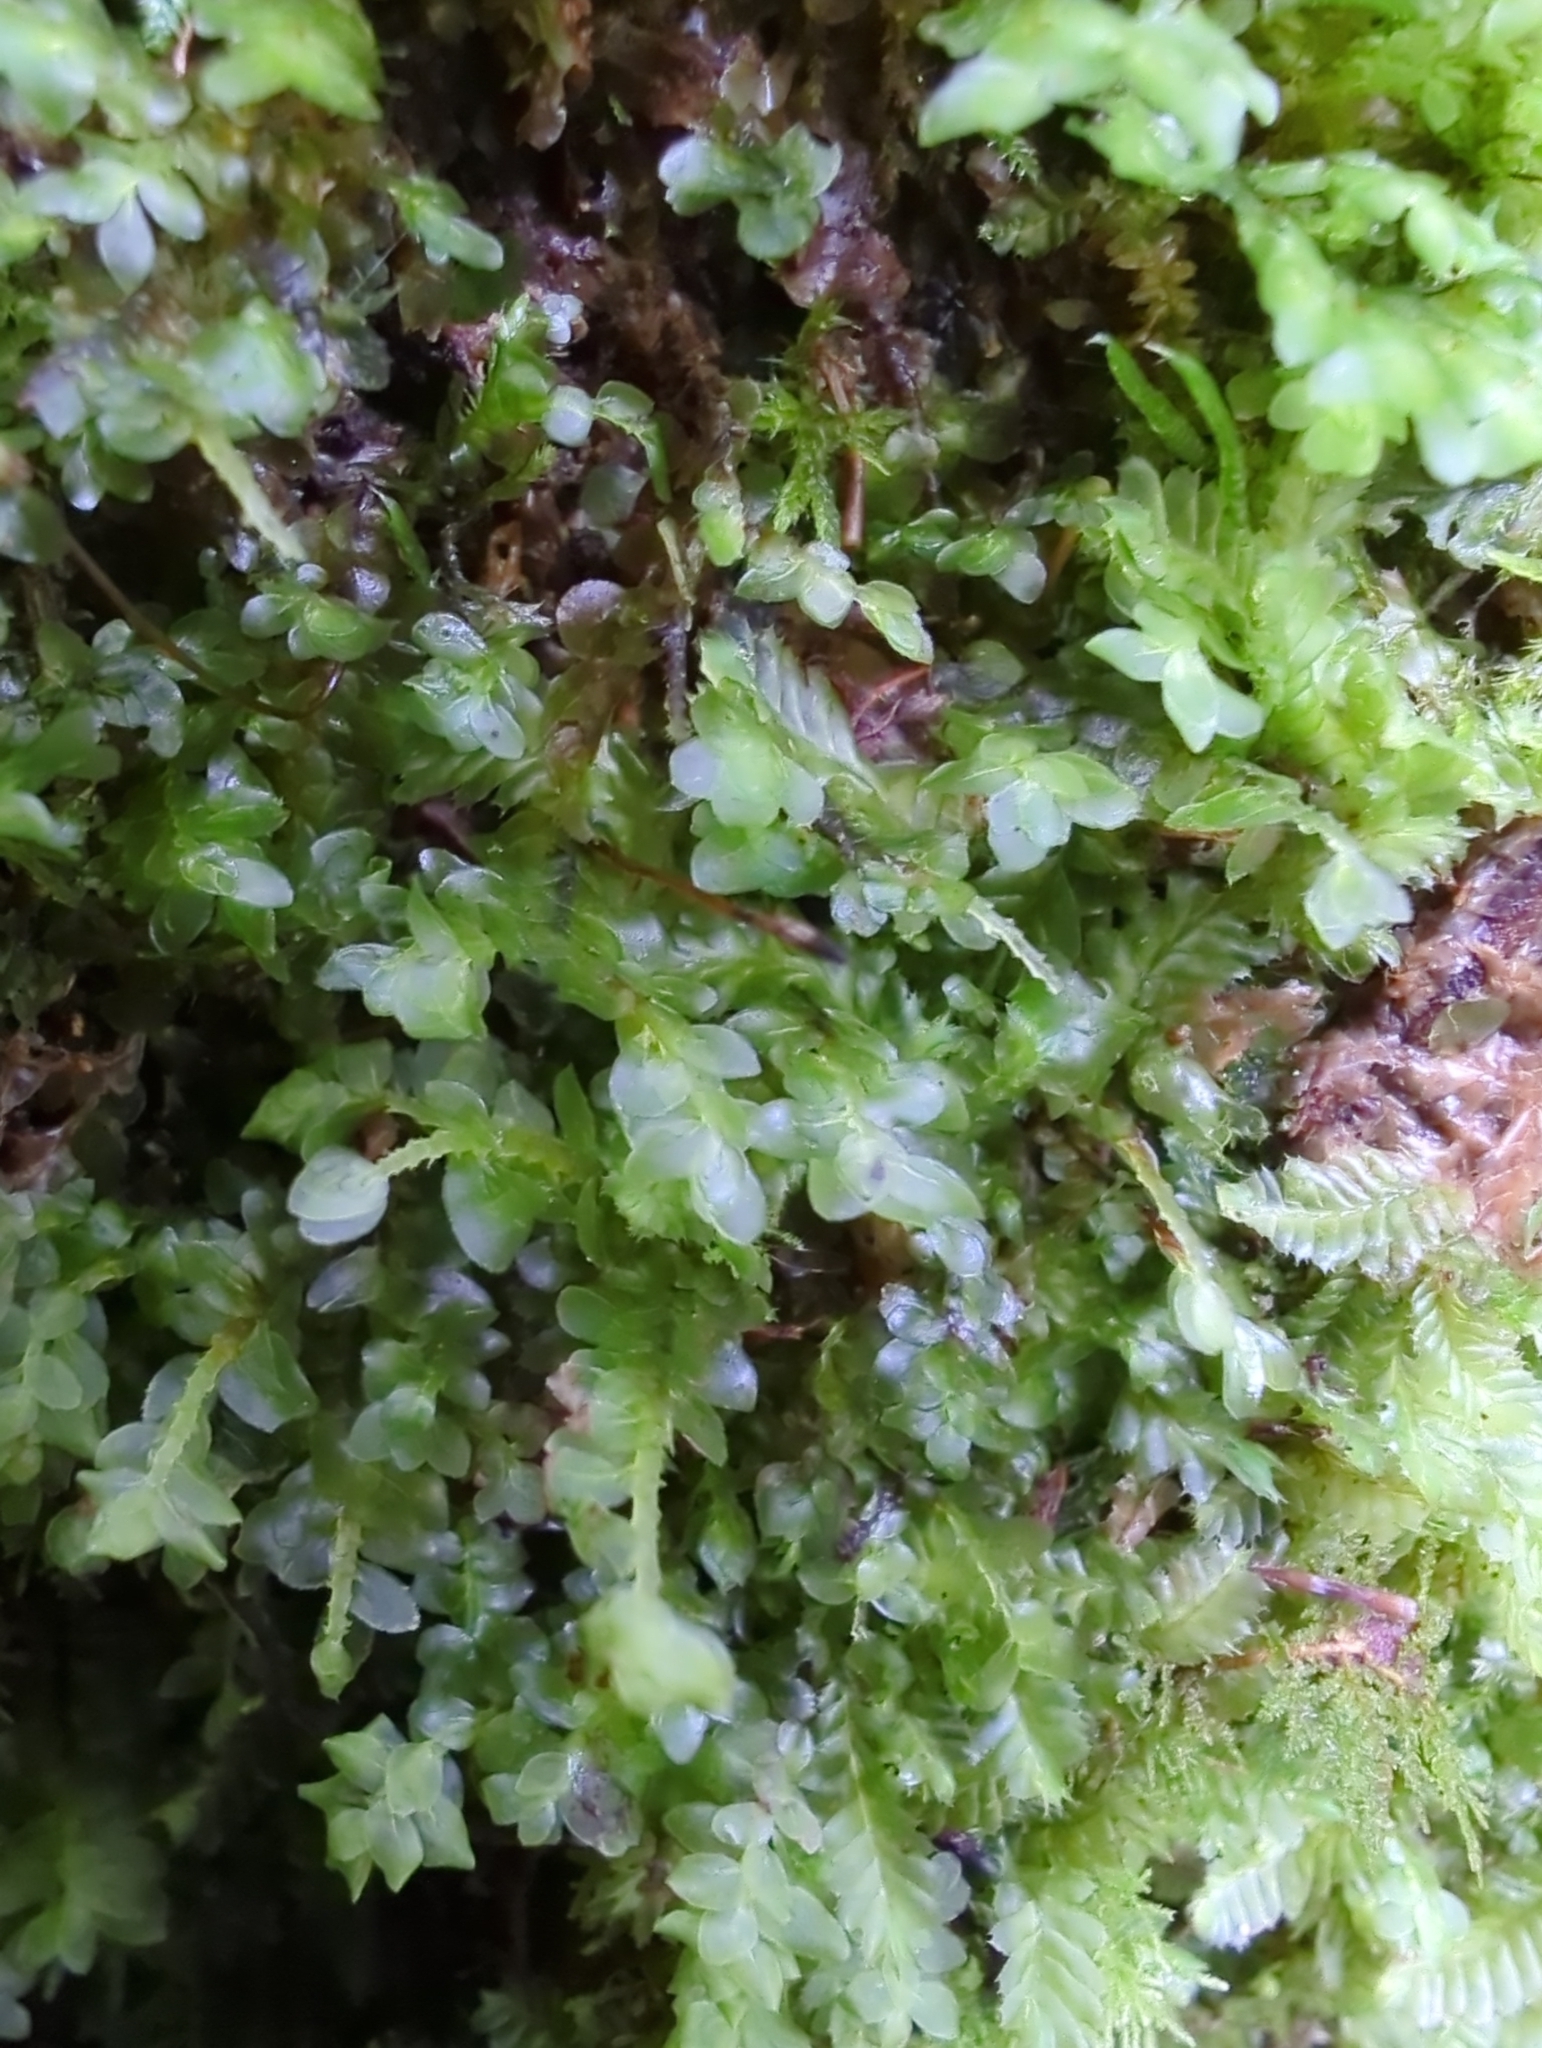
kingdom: Plantae
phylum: Bryophyta
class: Bryopsida
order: Hookeriales
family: Daltoniaceae
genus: Achrophyllum
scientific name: Achrophyllum dentatum
